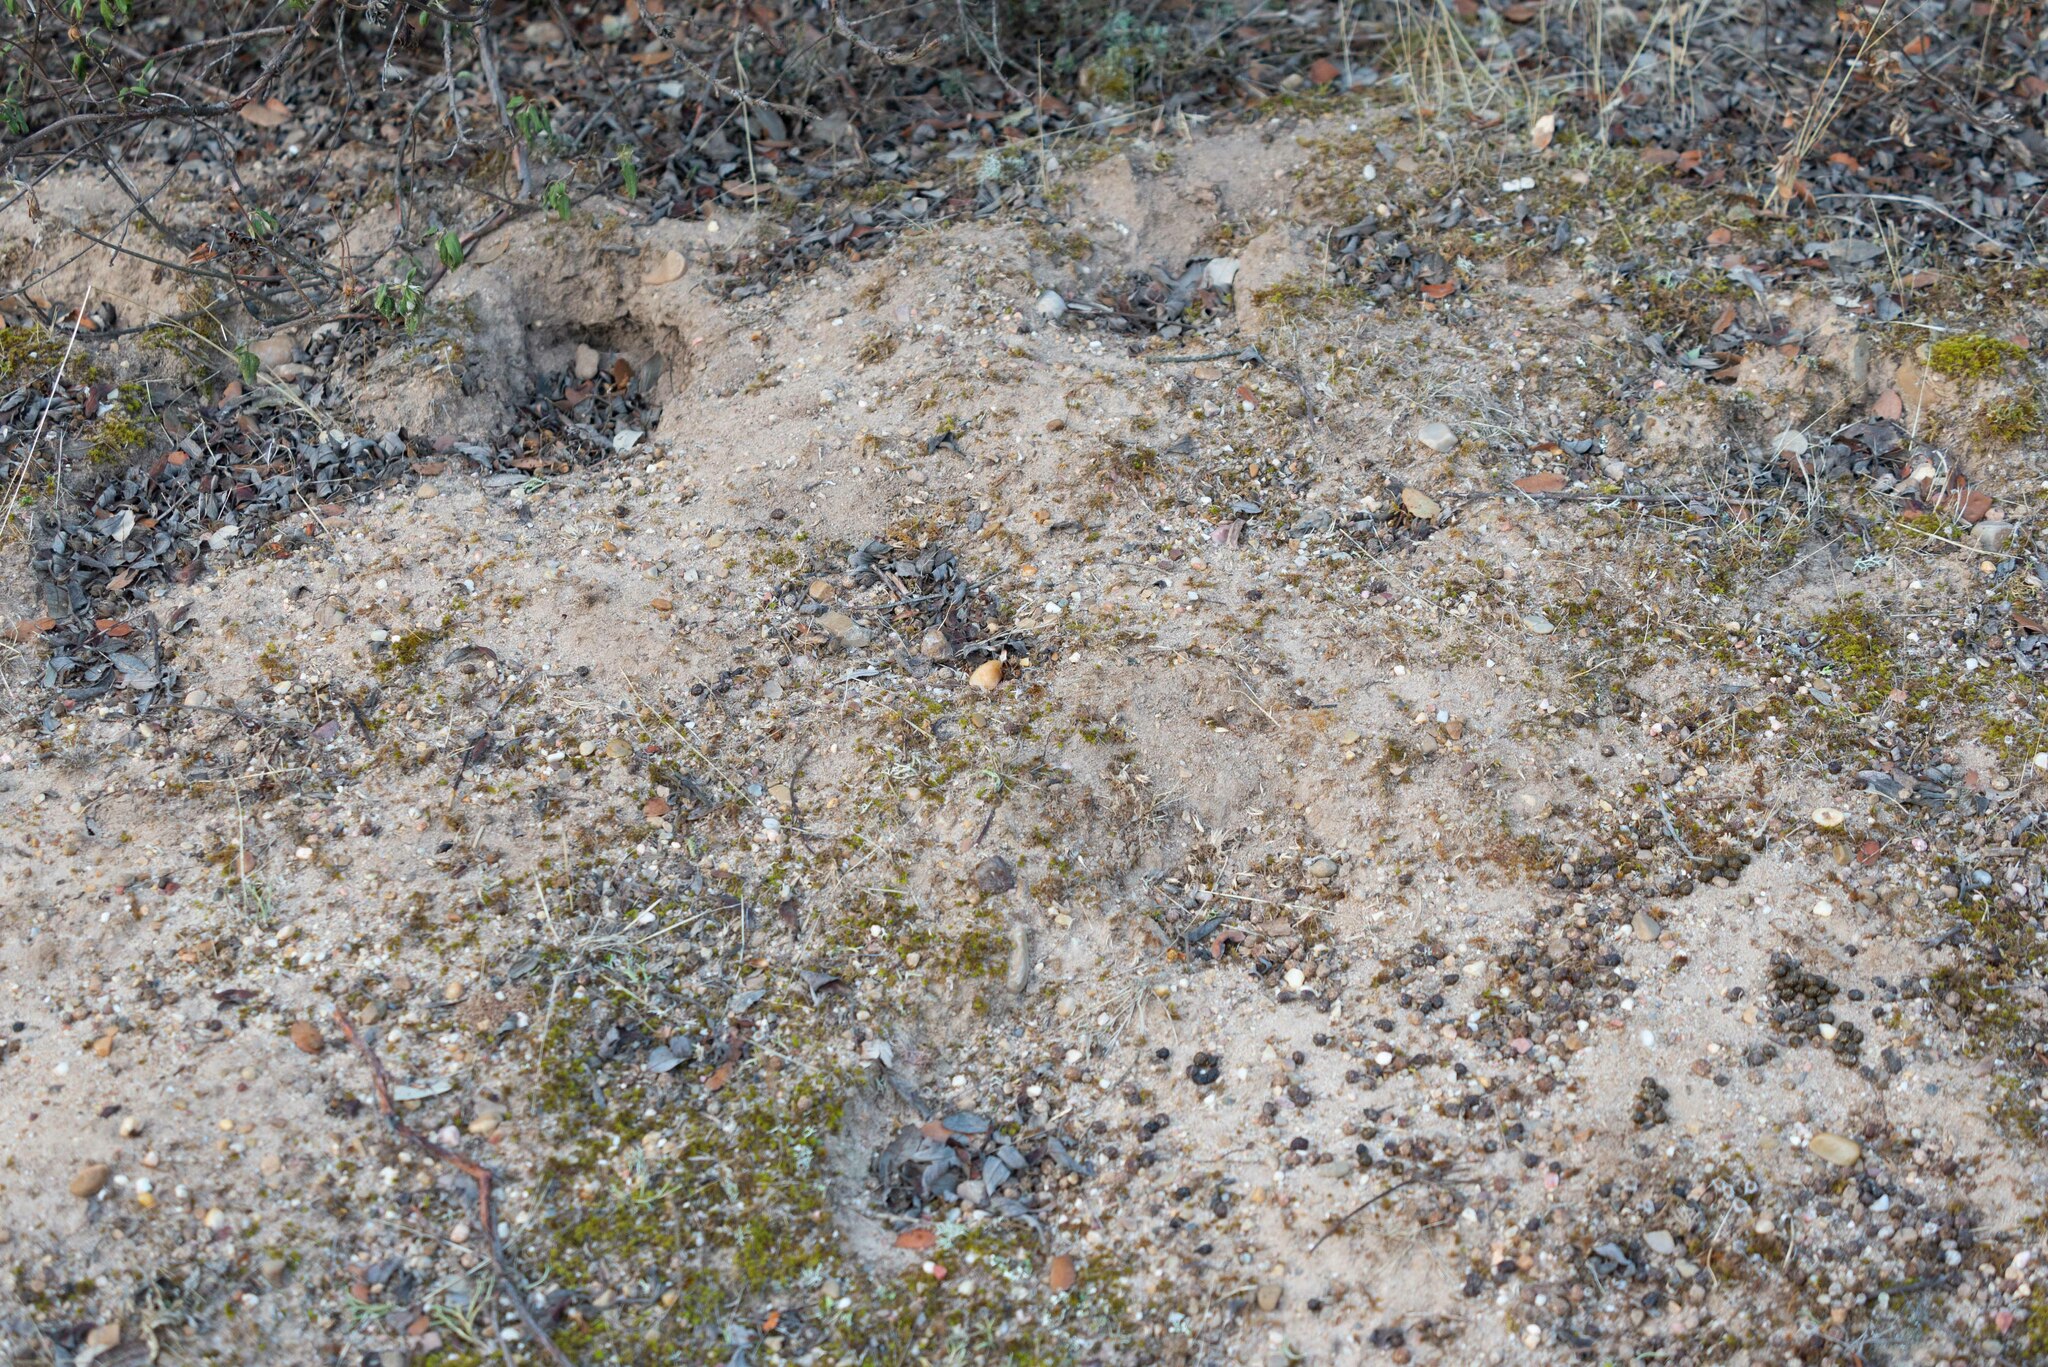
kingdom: Animalia
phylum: Chordata
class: Mammalia
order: Lagomorpha
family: Leporidae
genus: Oryctolagus
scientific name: Oryctolagus cuniculus
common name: European rabbit
